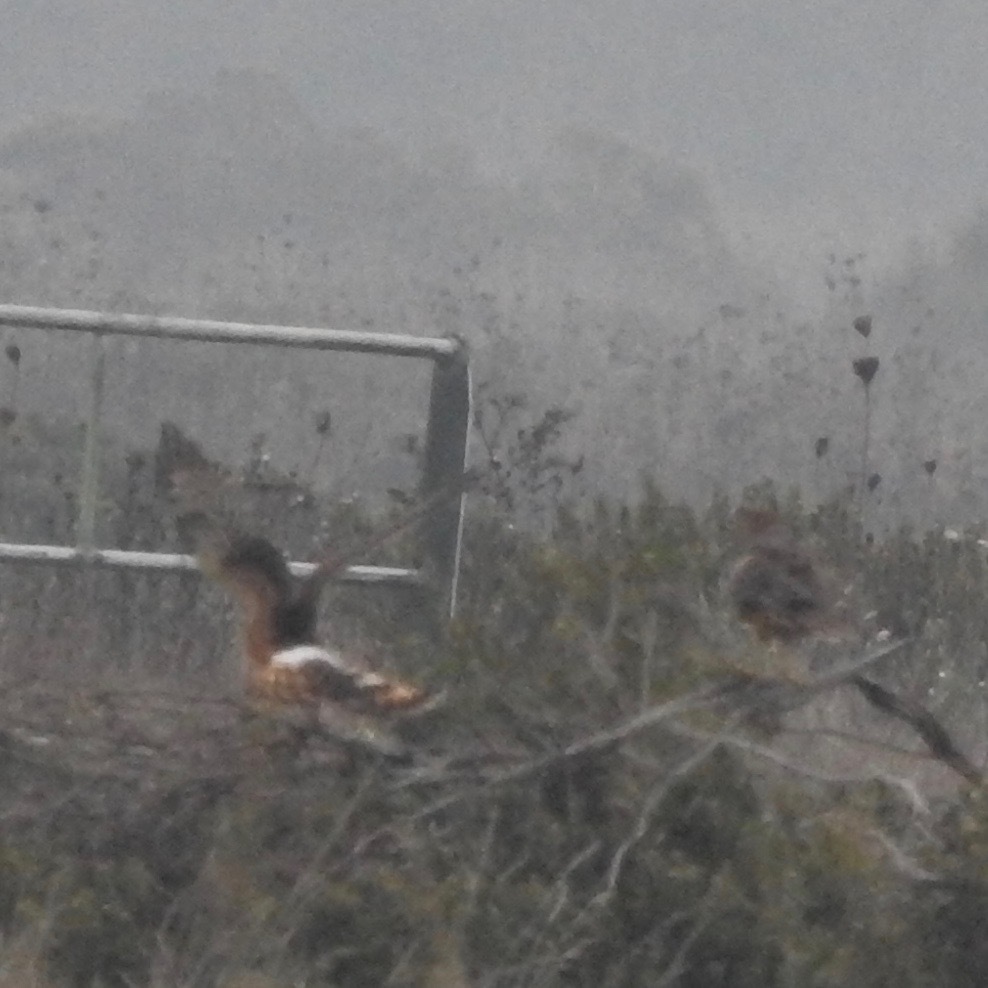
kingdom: Animalia
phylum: Chordata
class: Aves
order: Accipitriformes
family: Accipitridae
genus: Circus
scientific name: Circus cyaneus
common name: Hen harrier
